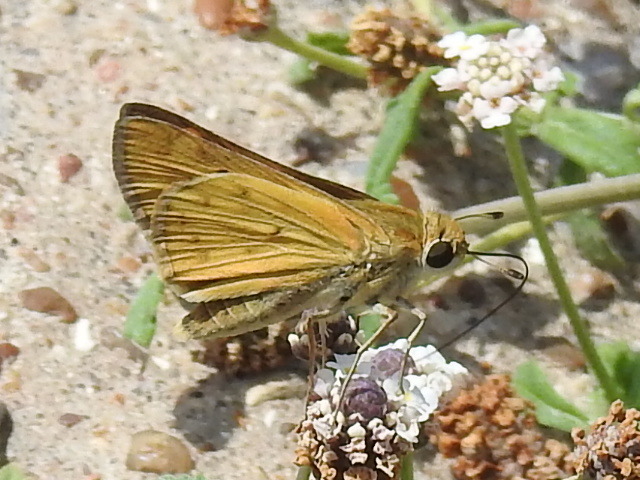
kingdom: Animalia
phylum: Arthropoda
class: Insecta
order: Lepidoptera
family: Hesperiidae
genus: Hylephila
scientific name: Hylephila phyleus
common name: Fiery skipper
